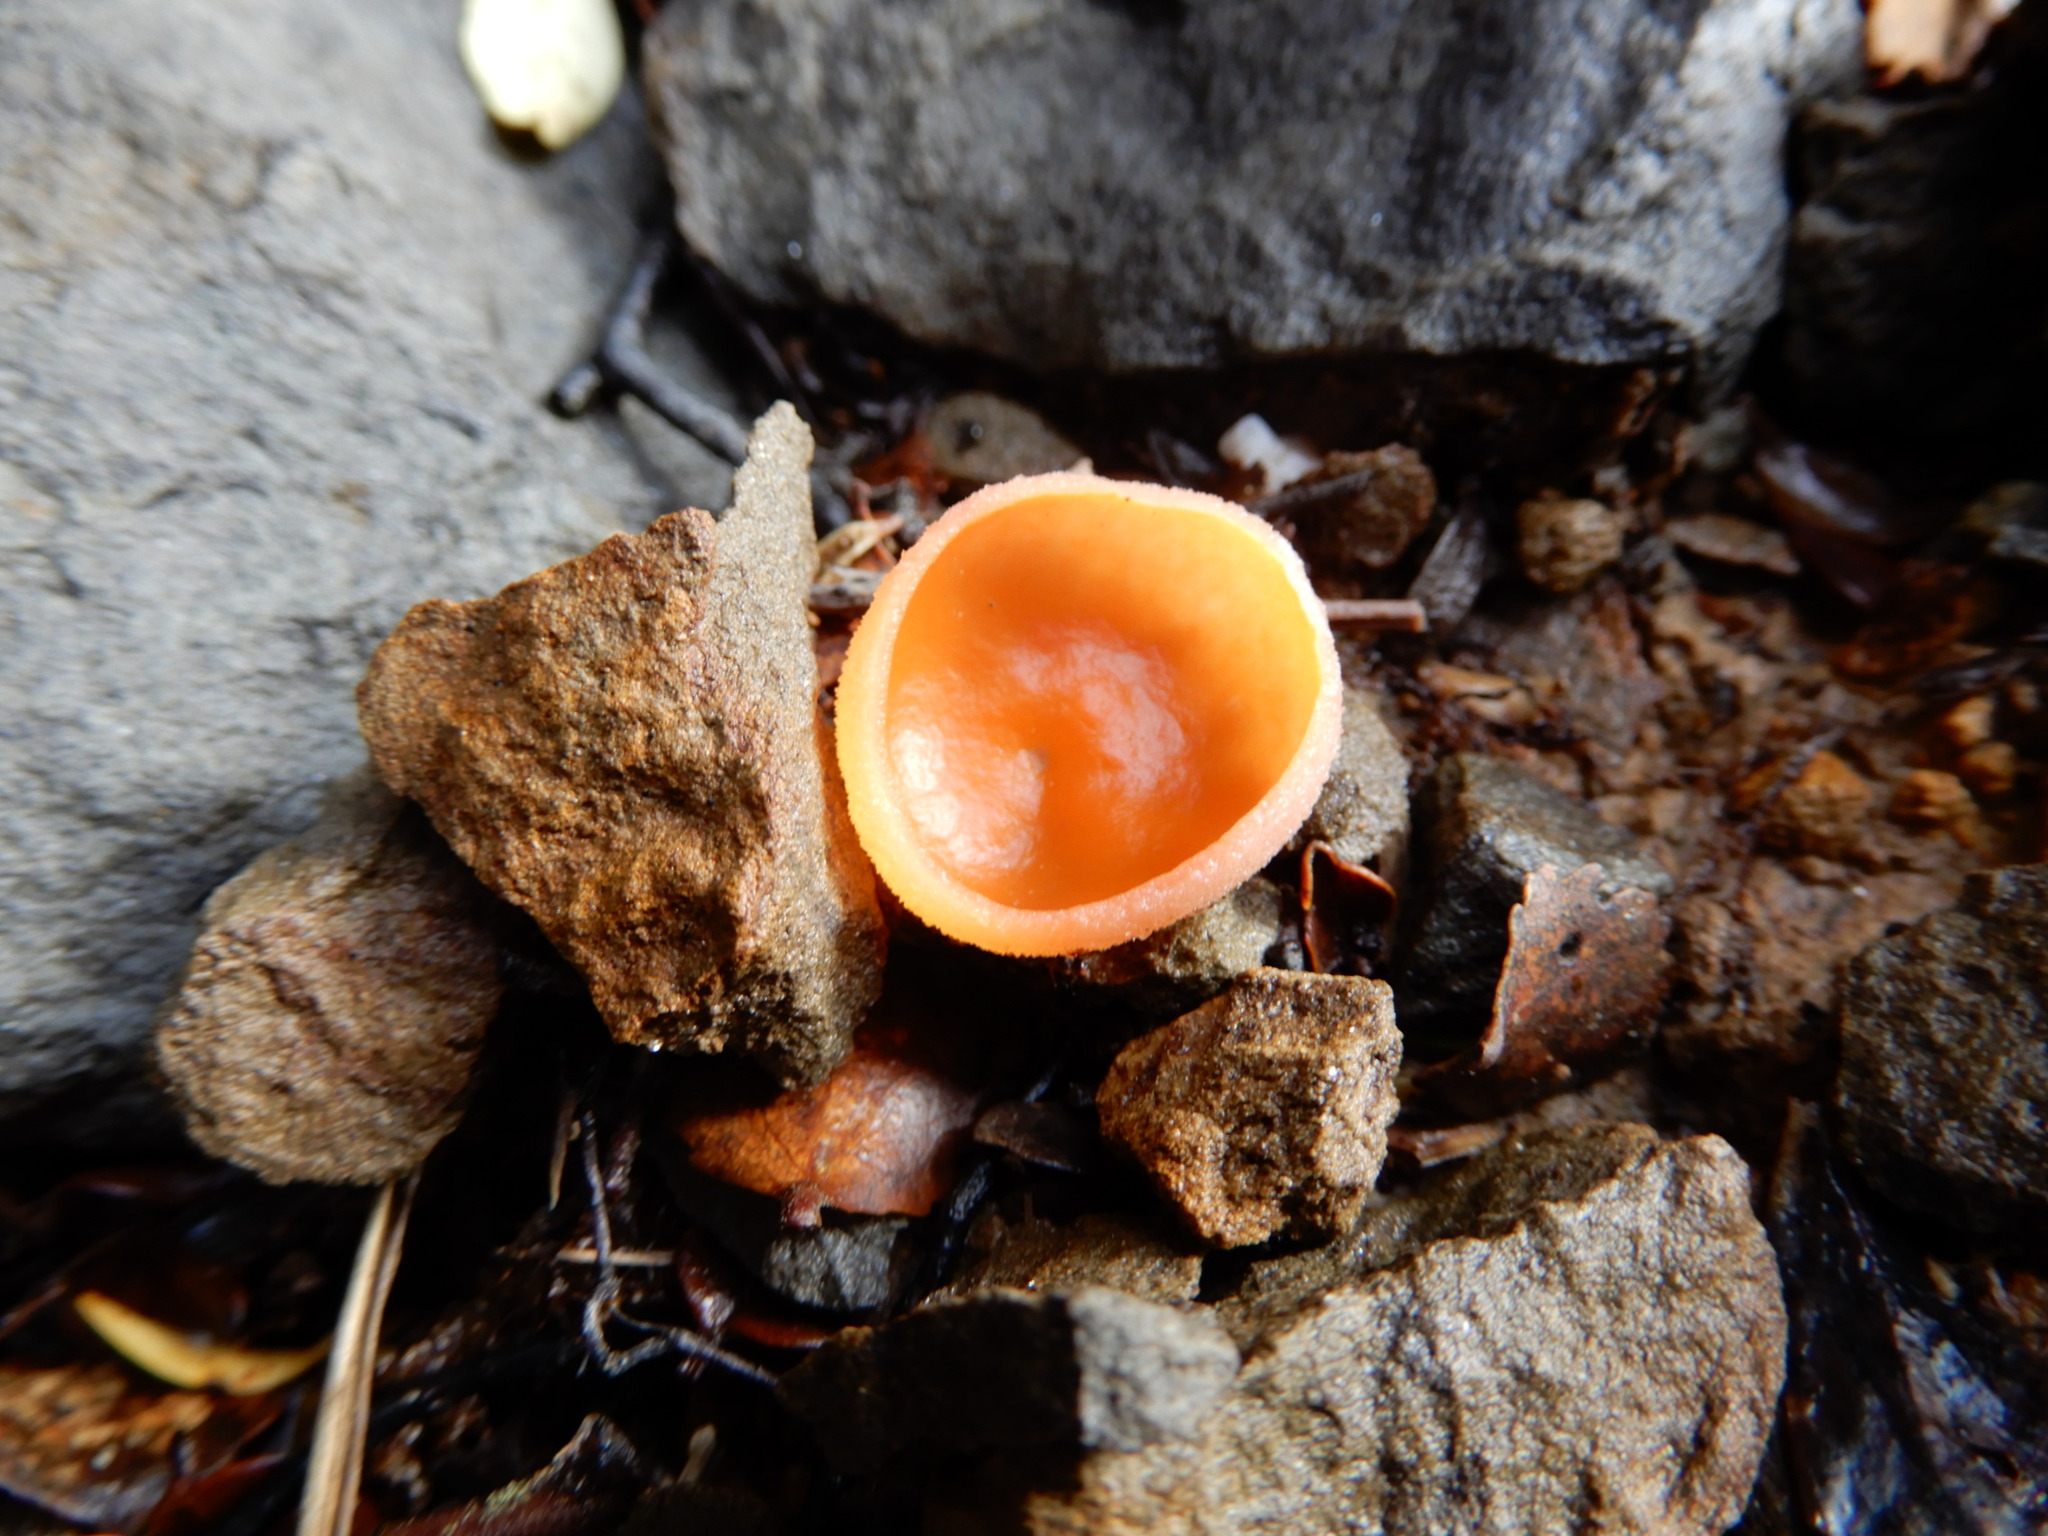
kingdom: Fungi
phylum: Ascomycota
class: Pezizomycetes
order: Pezizales
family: Pyronemataceae
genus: Aleuria
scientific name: Aleuria aurantia
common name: Orange peel fungus
